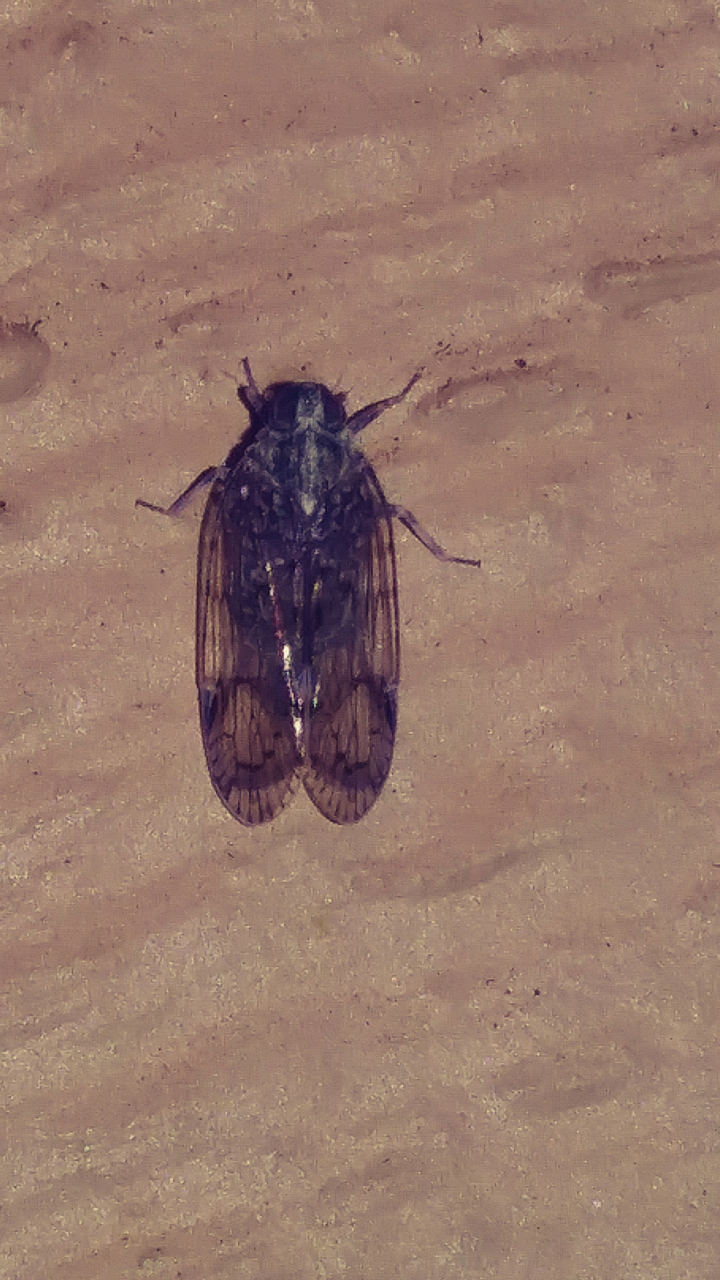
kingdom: Animalia
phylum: Arthropoda
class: Insecta
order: Hemiptera
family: Cixiidae
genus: Melanoliarus
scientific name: Melanoliarus placitus
